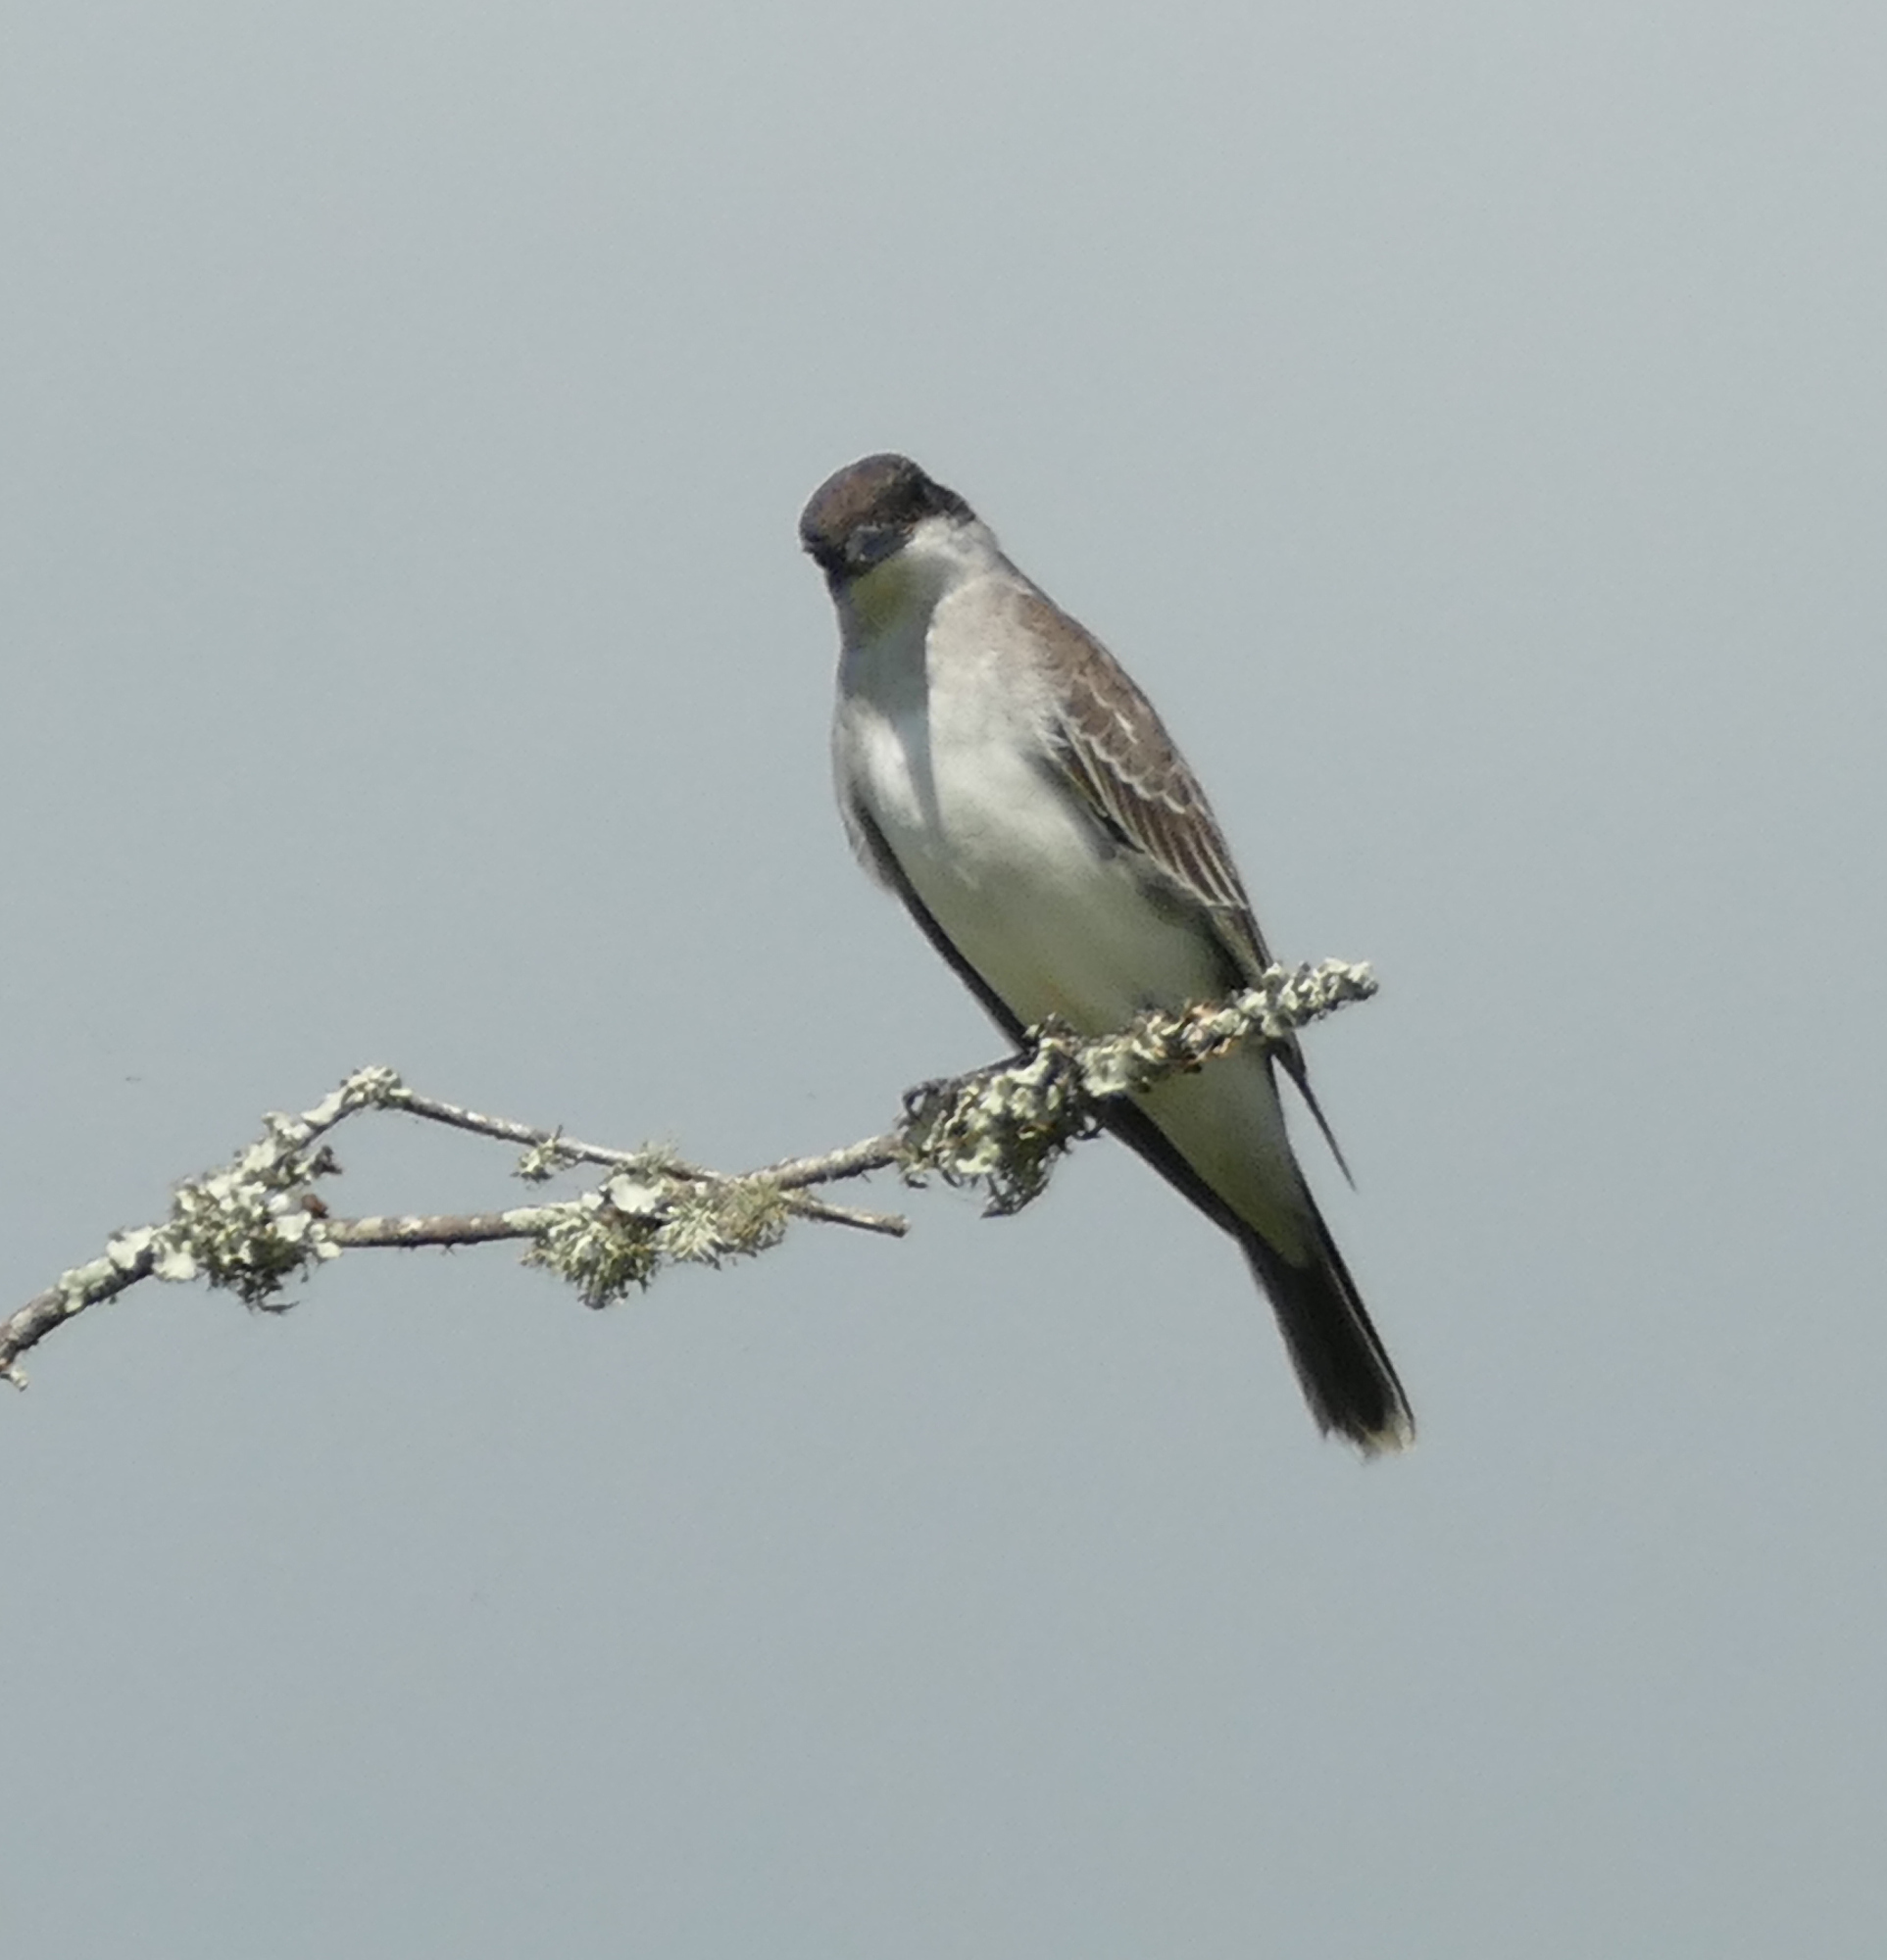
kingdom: Animalia
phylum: Chordata
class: Aves
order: Passeriformes
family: Tyrannidae
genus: Tyrannus
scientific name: Tyrannus tyrannus
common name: Eastern kingbird
